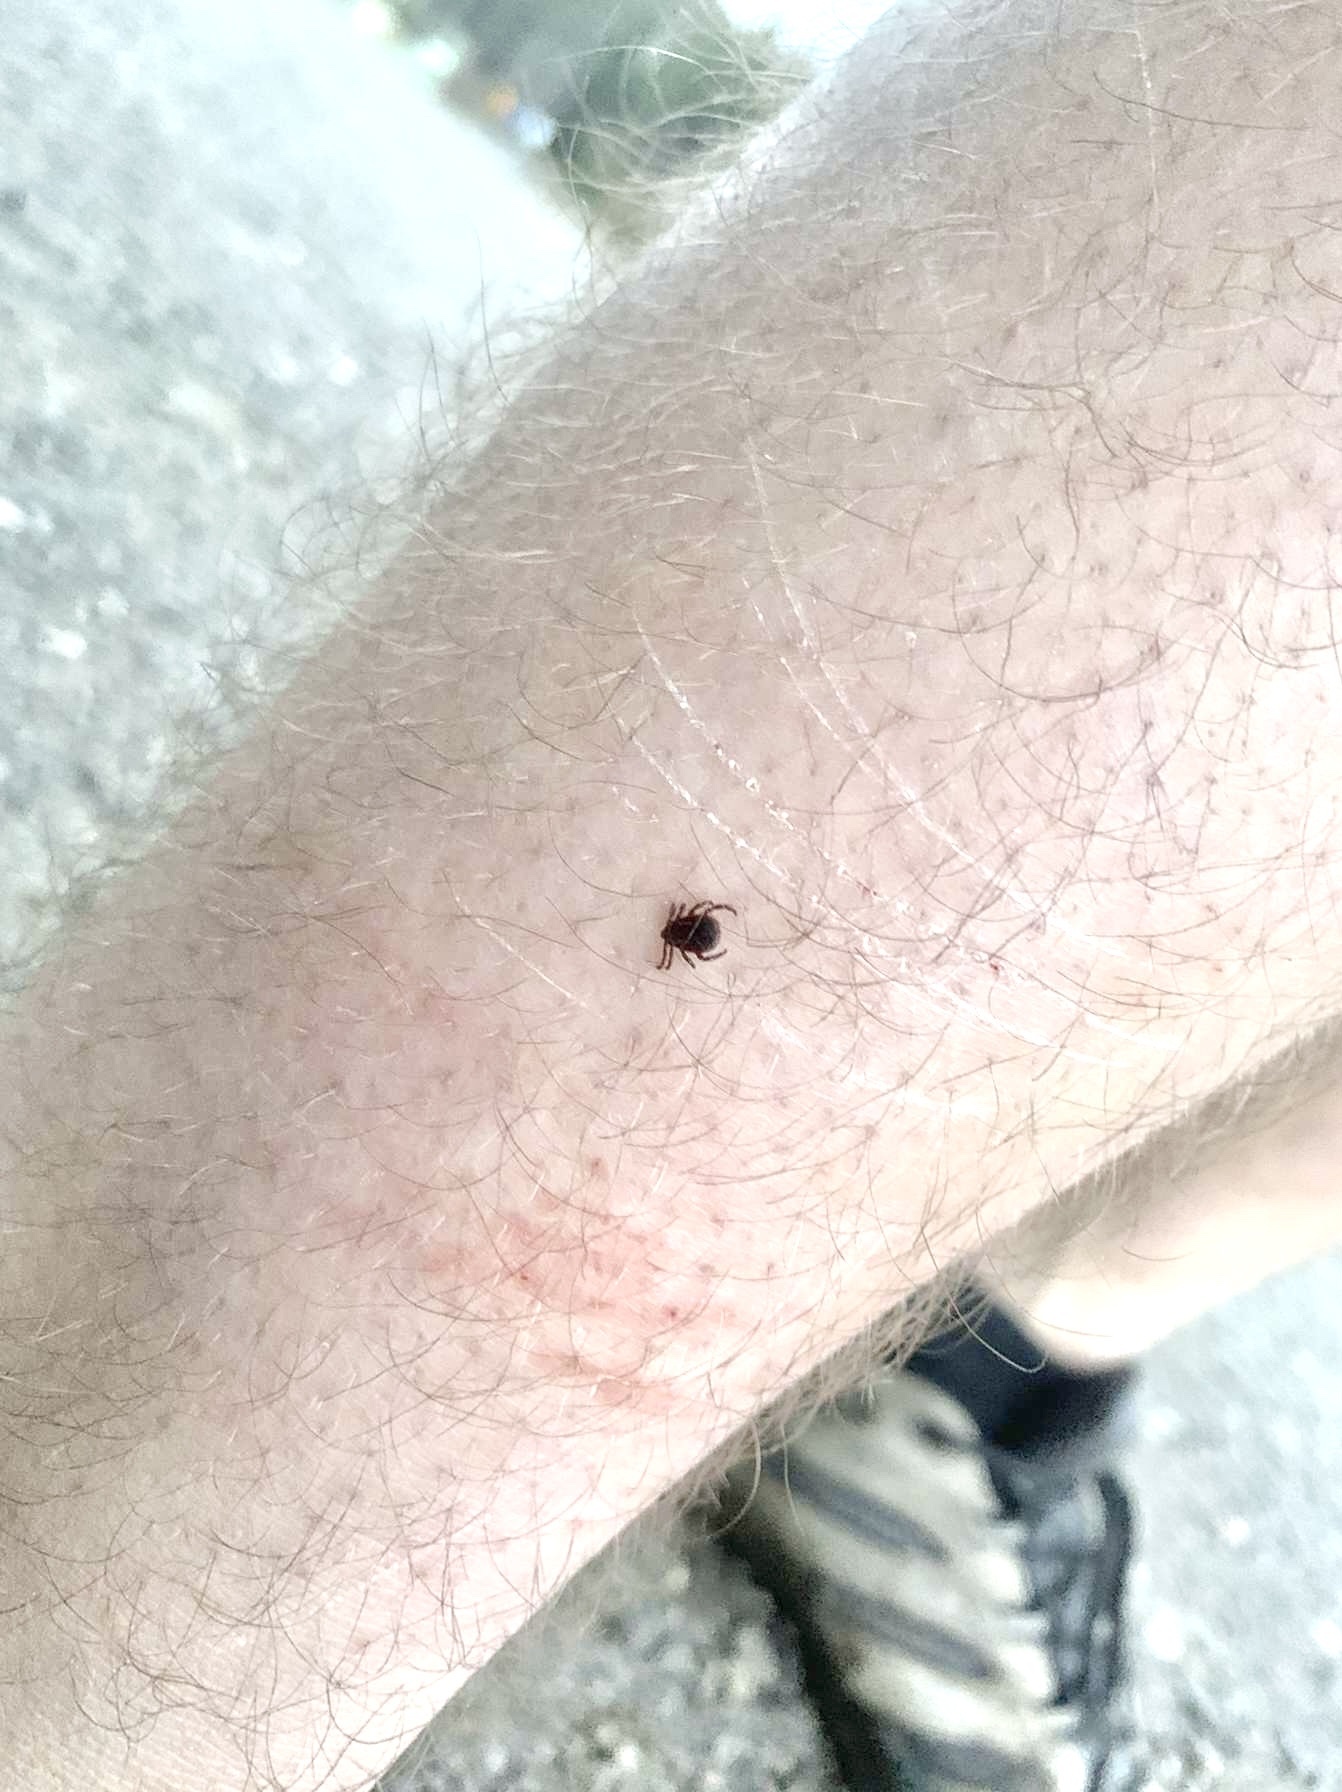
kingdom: Animalia
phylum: Arthropoda
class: Arachnida
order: Ixodida
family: Ixodidae
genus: Dermacentor
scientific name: Dermacentor variabilis
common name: American dog tick
